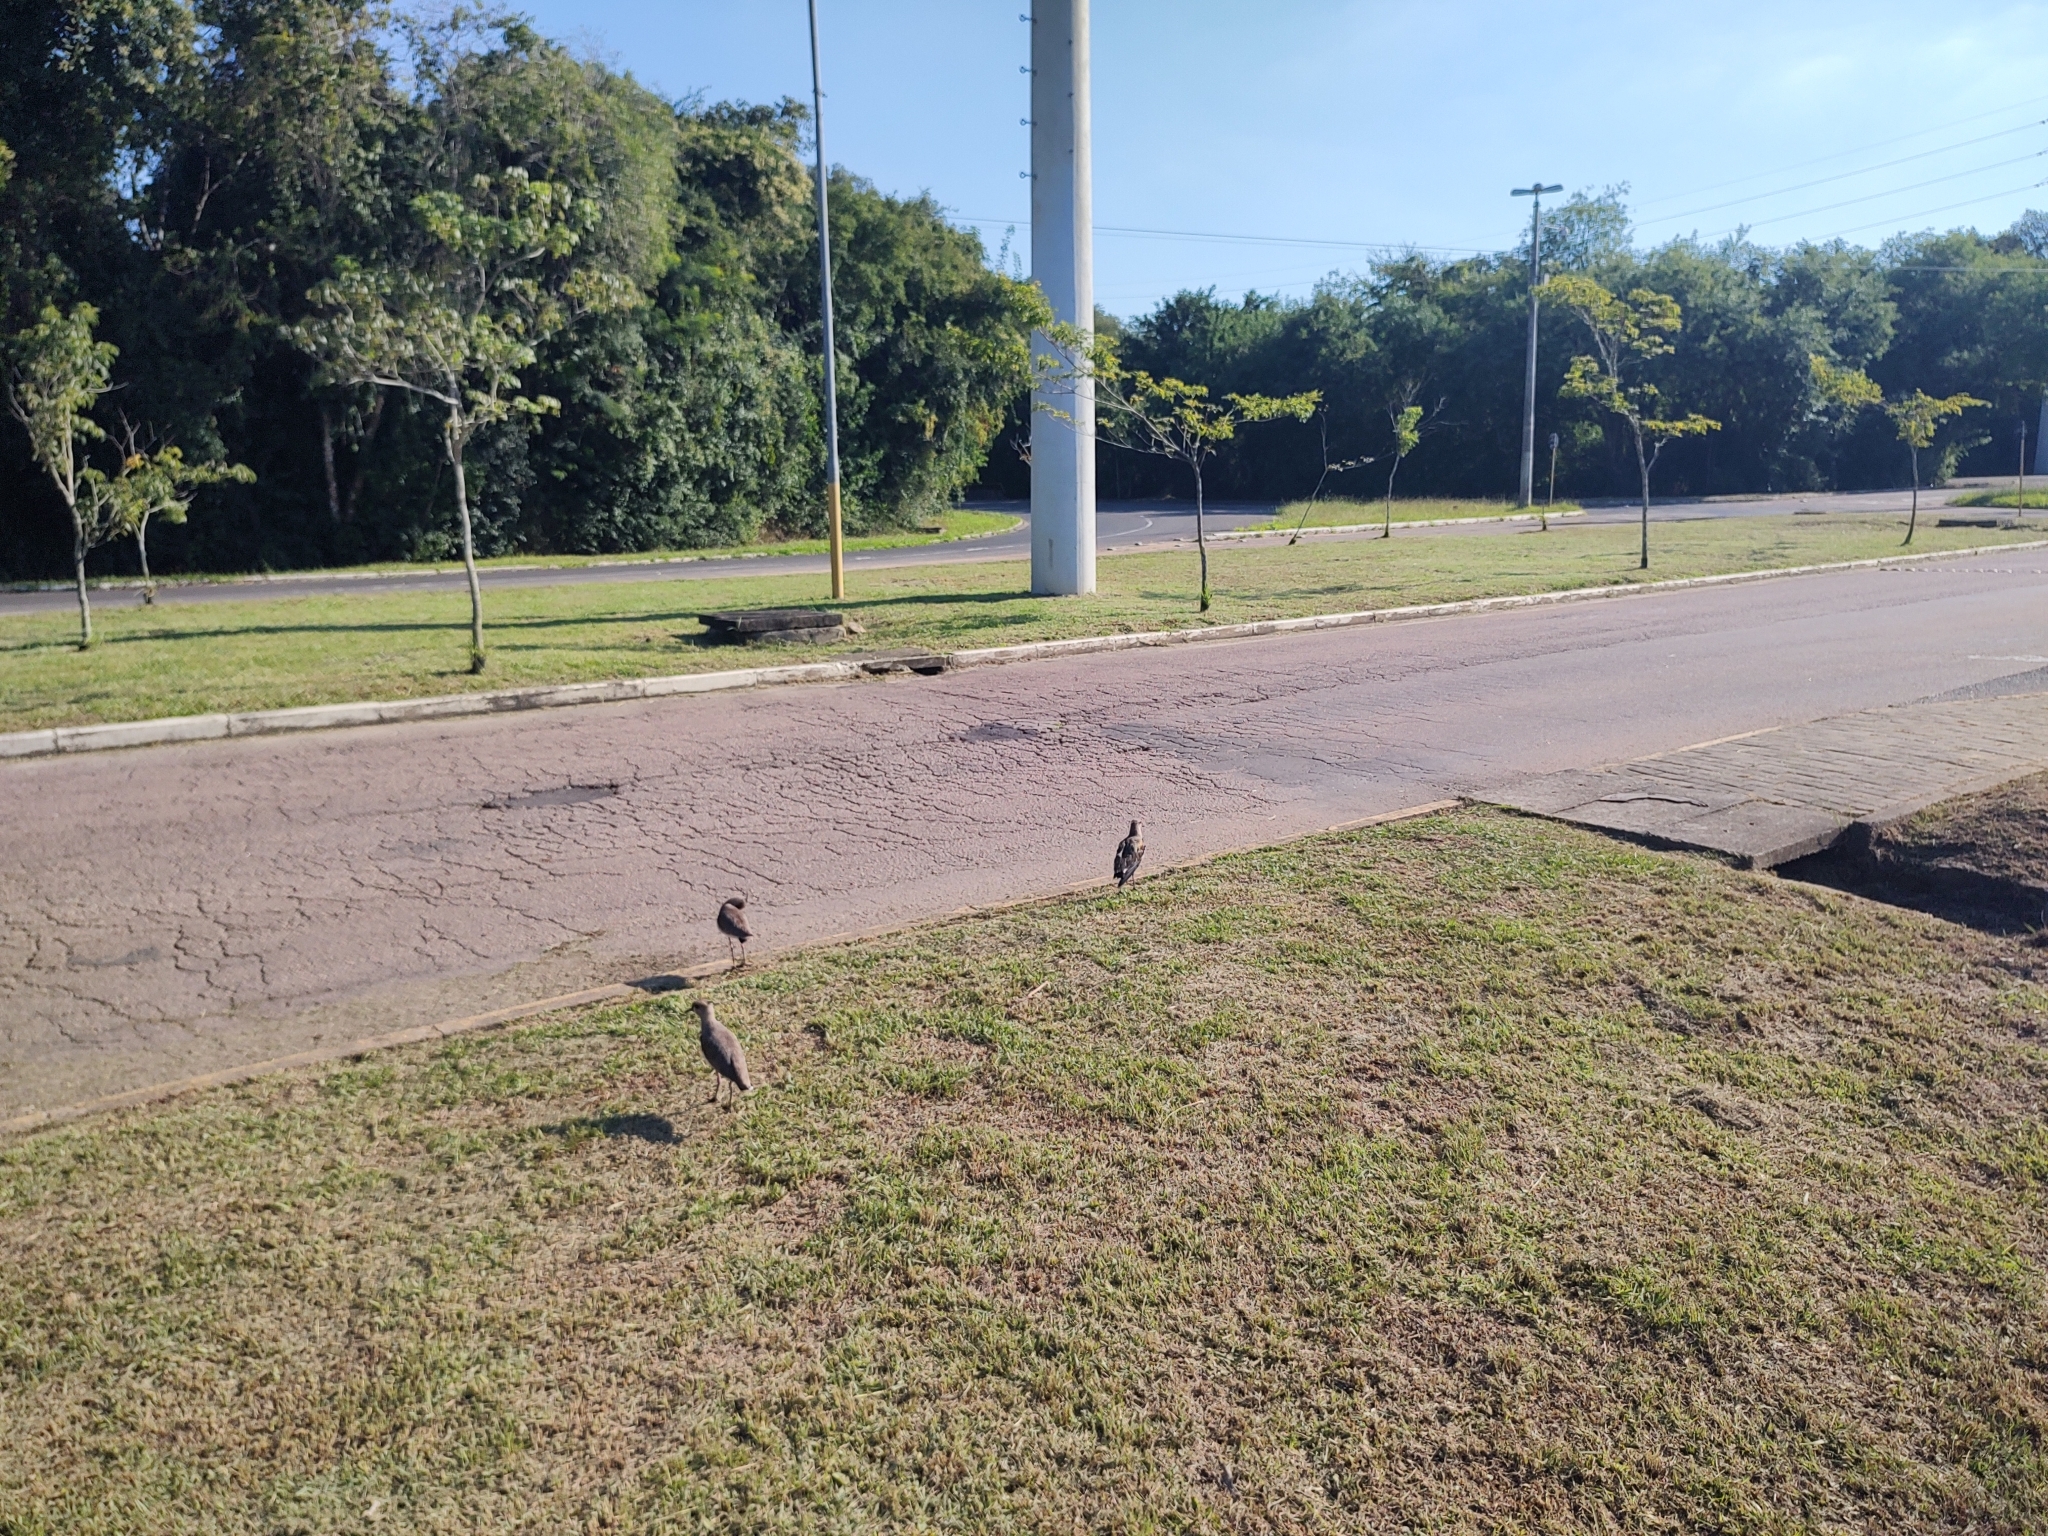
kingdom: Animalia
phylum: Chordata
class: Aves
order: Charadriiformes
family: Charadriidae
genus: Vanellus
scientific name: Vanellus chilensis
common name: Southern lapwing
